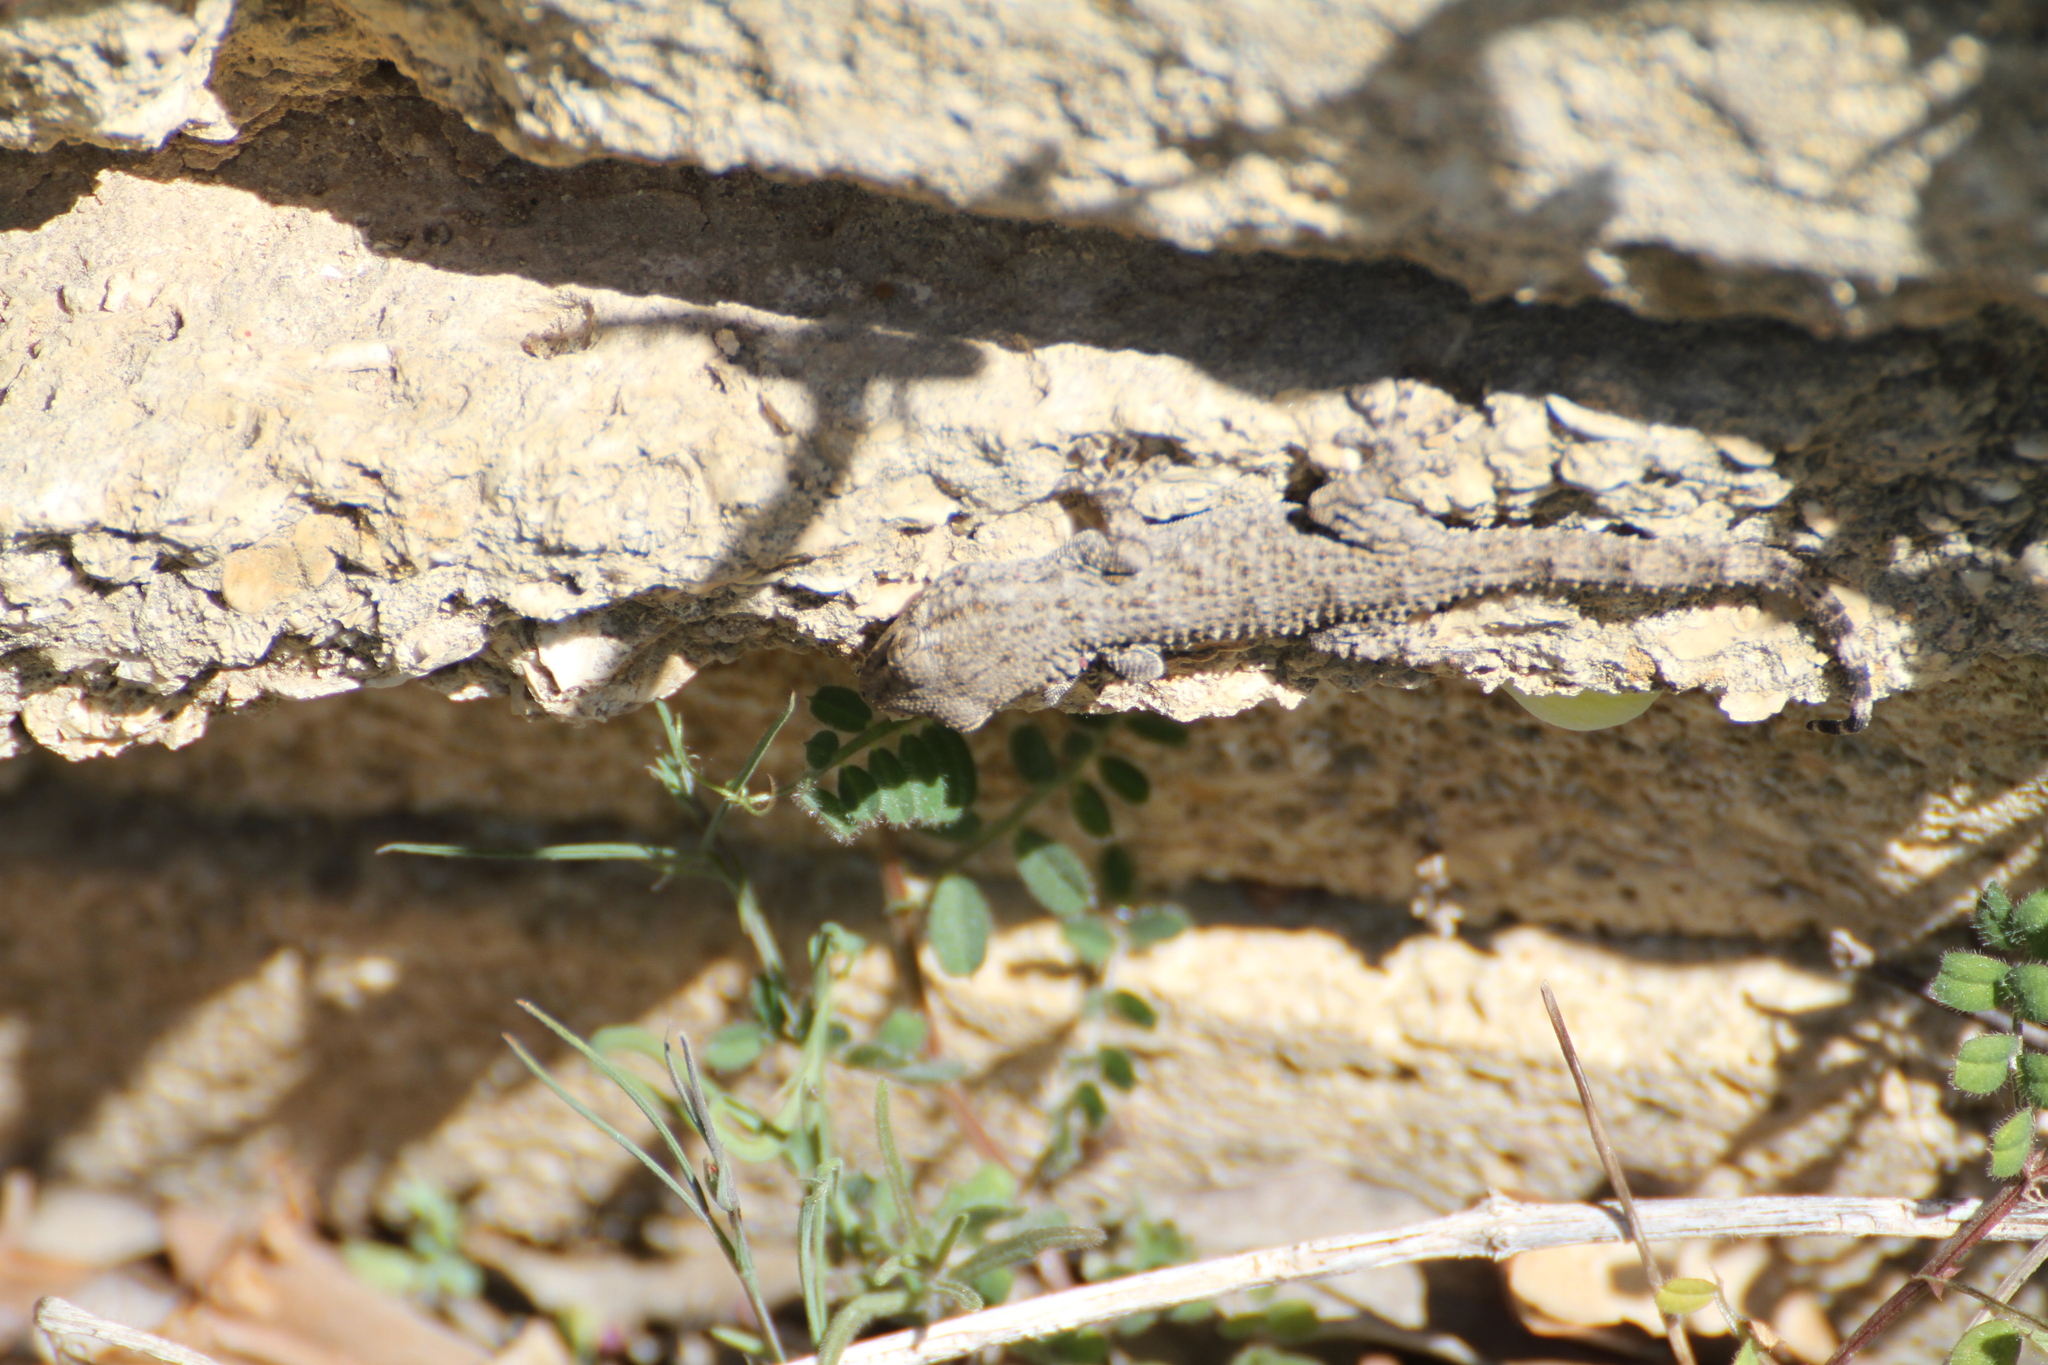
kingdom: Animalia
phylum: Chordata
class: Squamata
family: Phyllodactylidae
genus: Tarentola
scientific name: Tarentola mauritanica
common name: Moorish gecko
